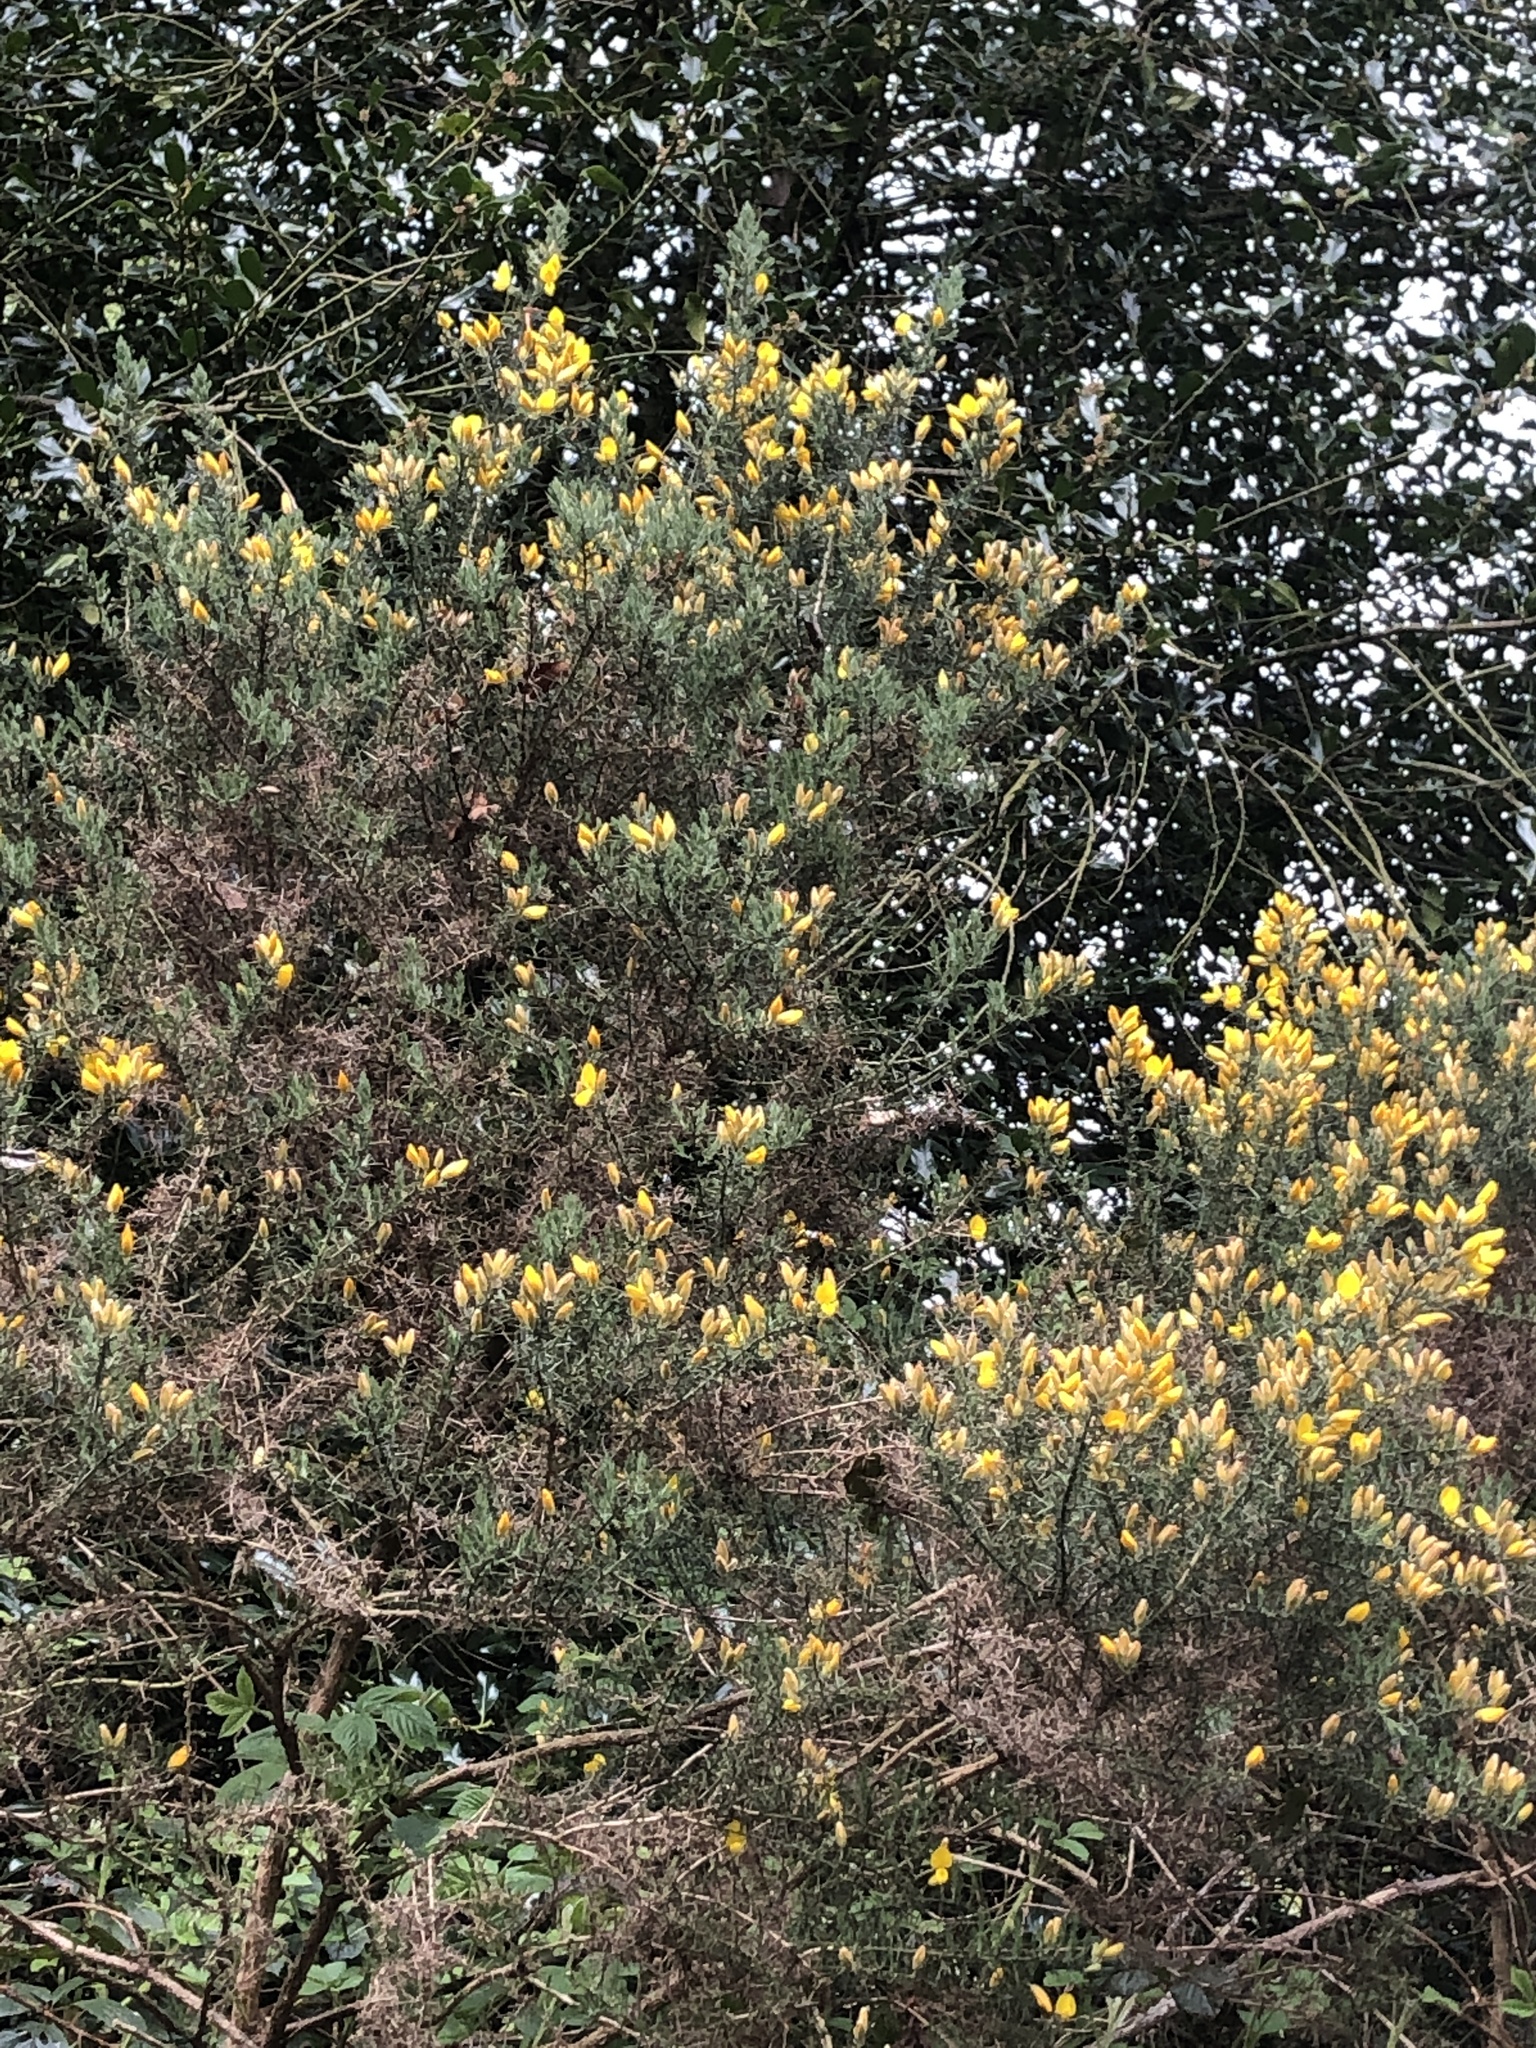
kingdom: Plantae
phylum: Tracheophyta
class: Magnoliopsida
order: Fabales
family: Fabaceae
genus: Ulex
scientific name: Ulex europaeus
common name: Common gorse
